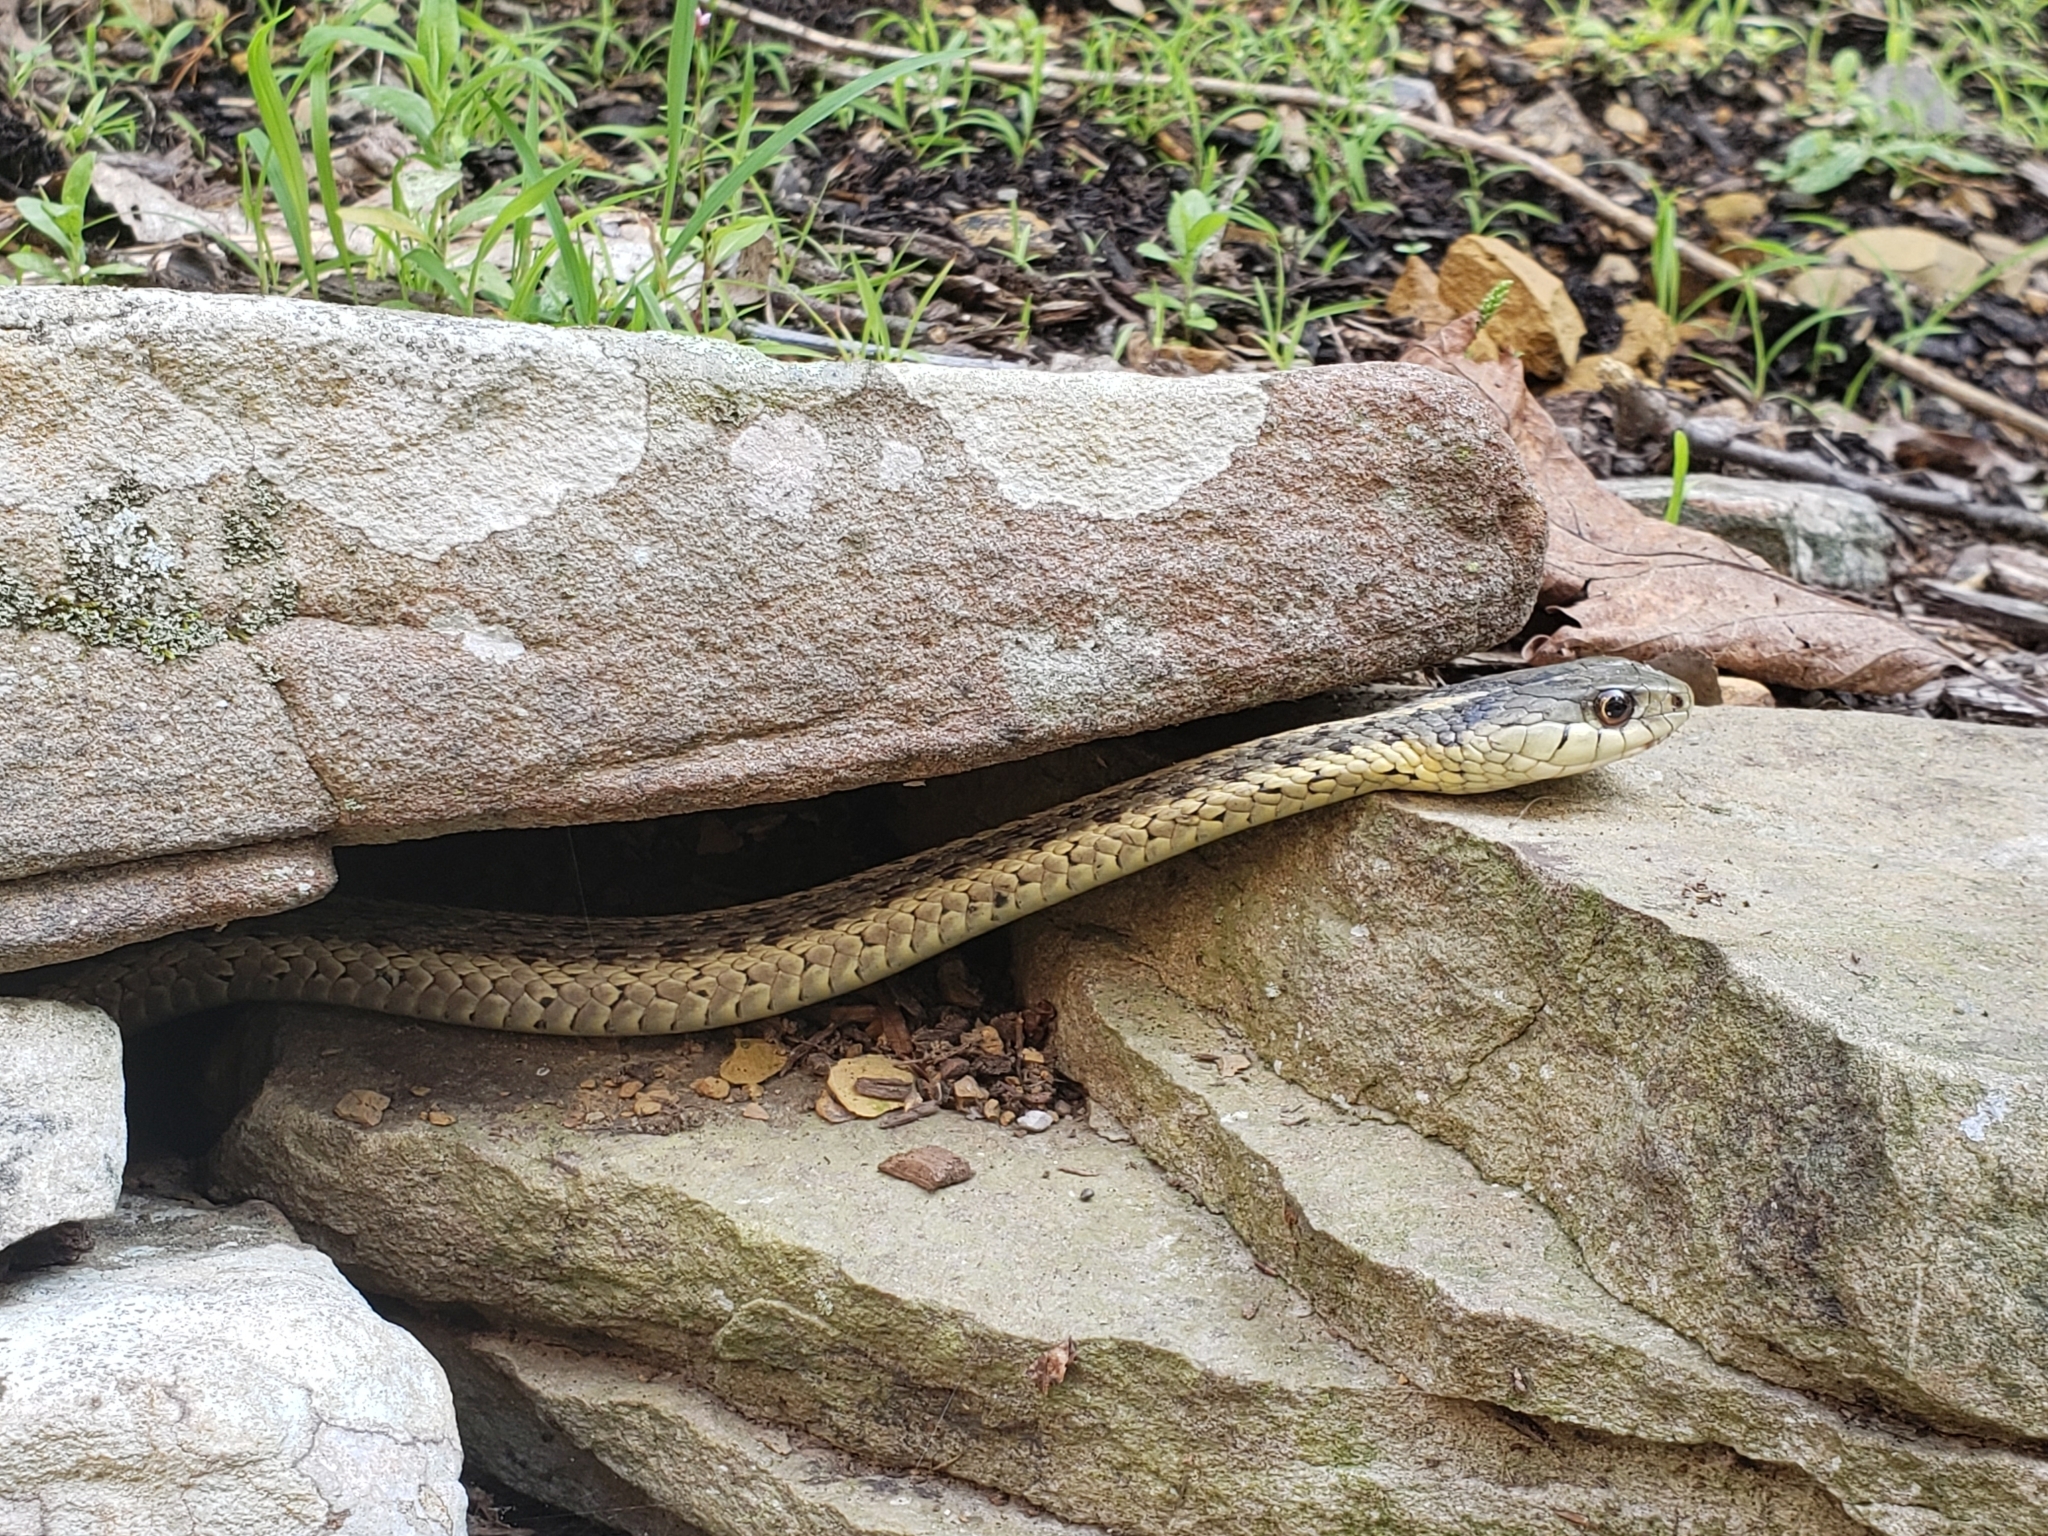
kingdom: Animalia
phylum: Chordata
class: Squamata
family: Colubridae
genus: Thamnophis
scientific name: Thamnophis sirtalis
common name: Common garter snake
